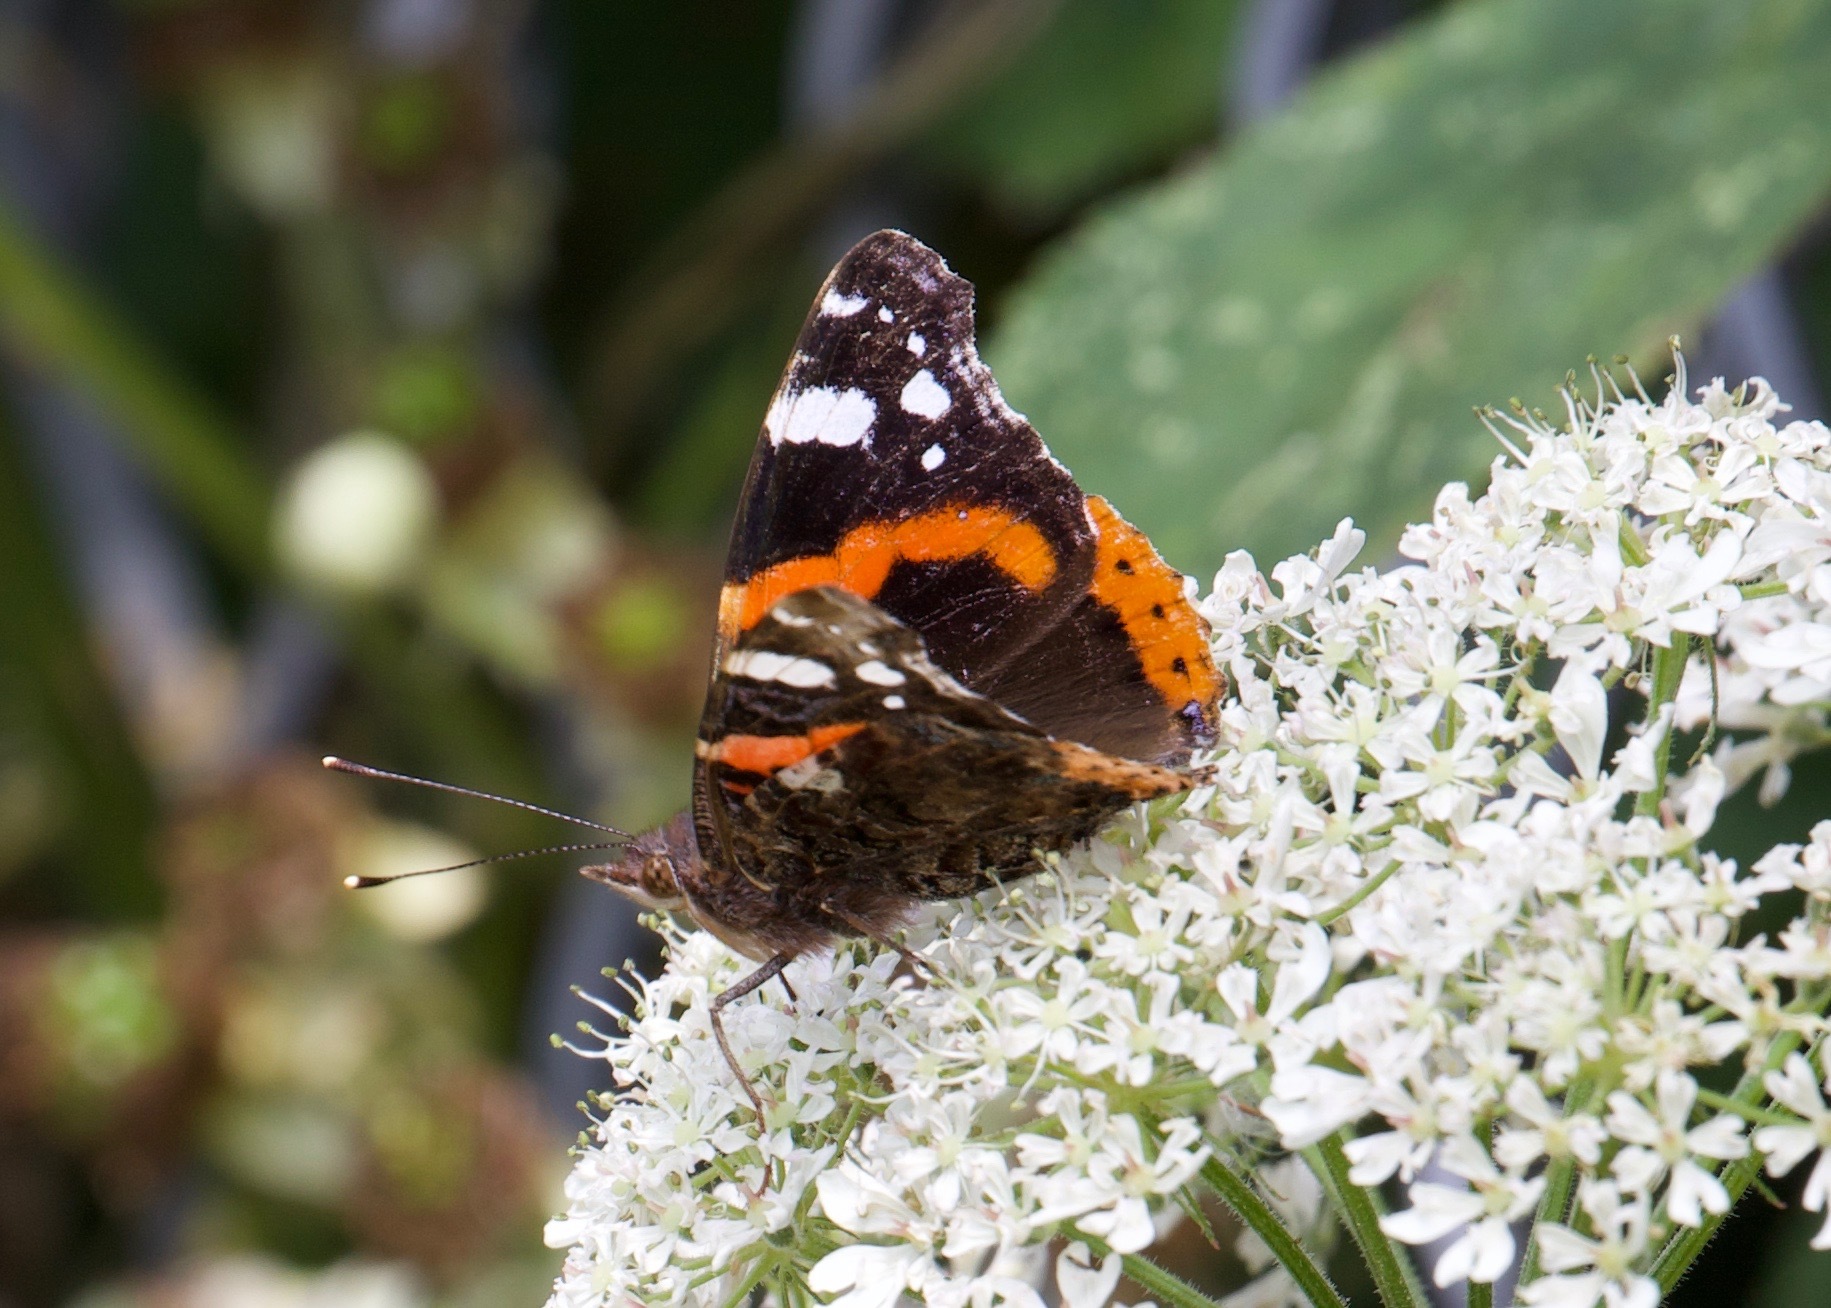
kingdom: Animalia
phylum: Arthropoda
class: Insecta
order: Lepidoptera
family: Nymphalidae
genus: Vanessa
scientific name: Vanessa atalanta
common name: Red admiral
